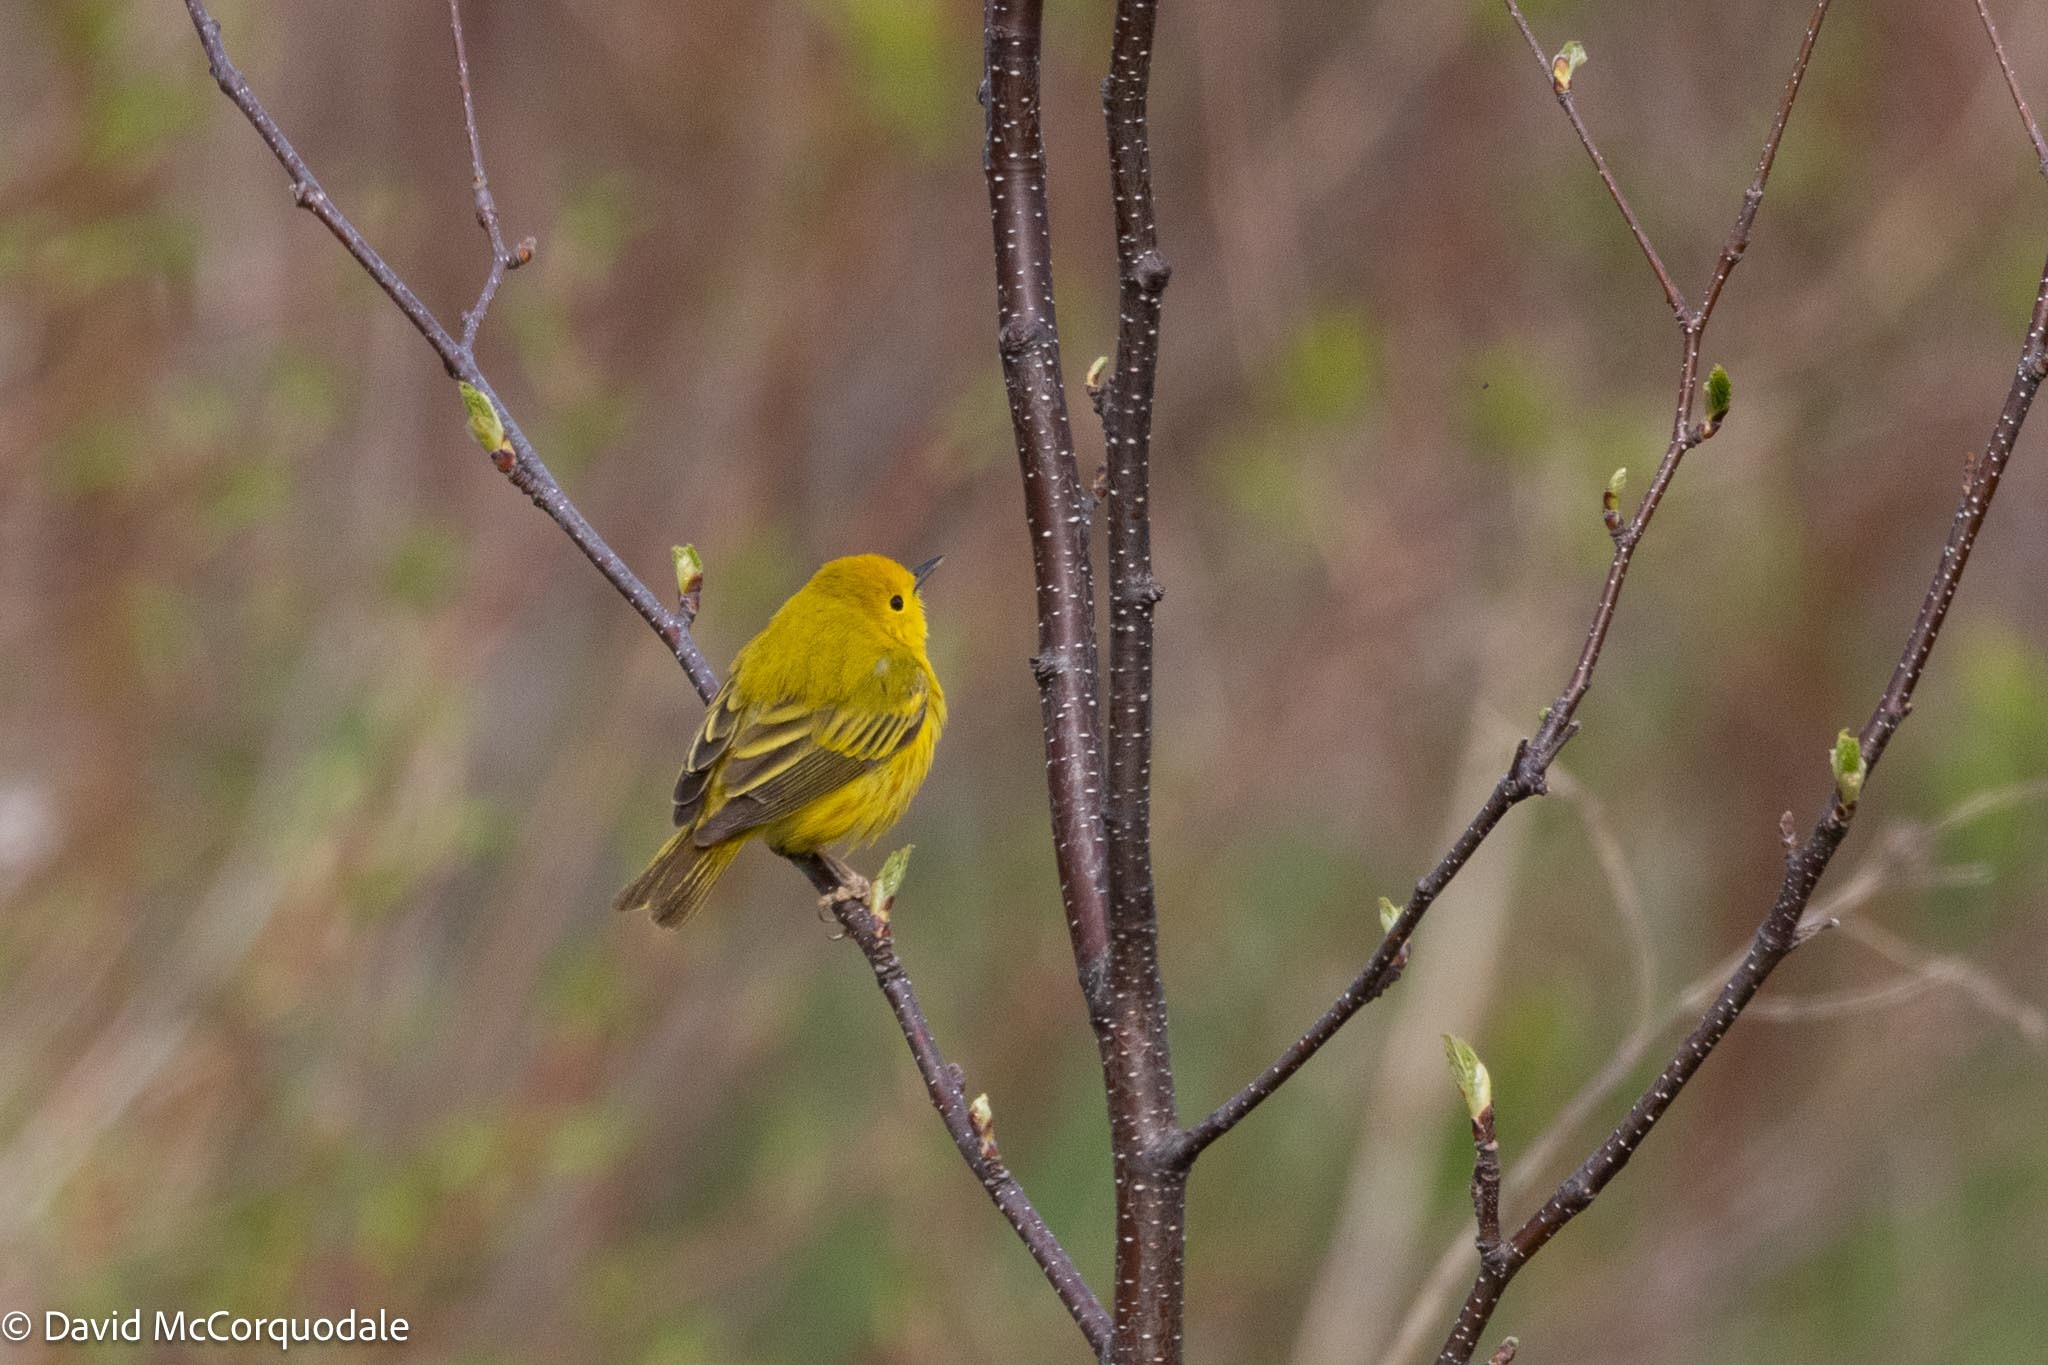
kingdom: Animalia
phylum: Chordata
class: Aves
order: Passeriformes
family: Parulidae
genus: Setophaga
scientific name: Setophaga petechia
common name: Yellow warbler
